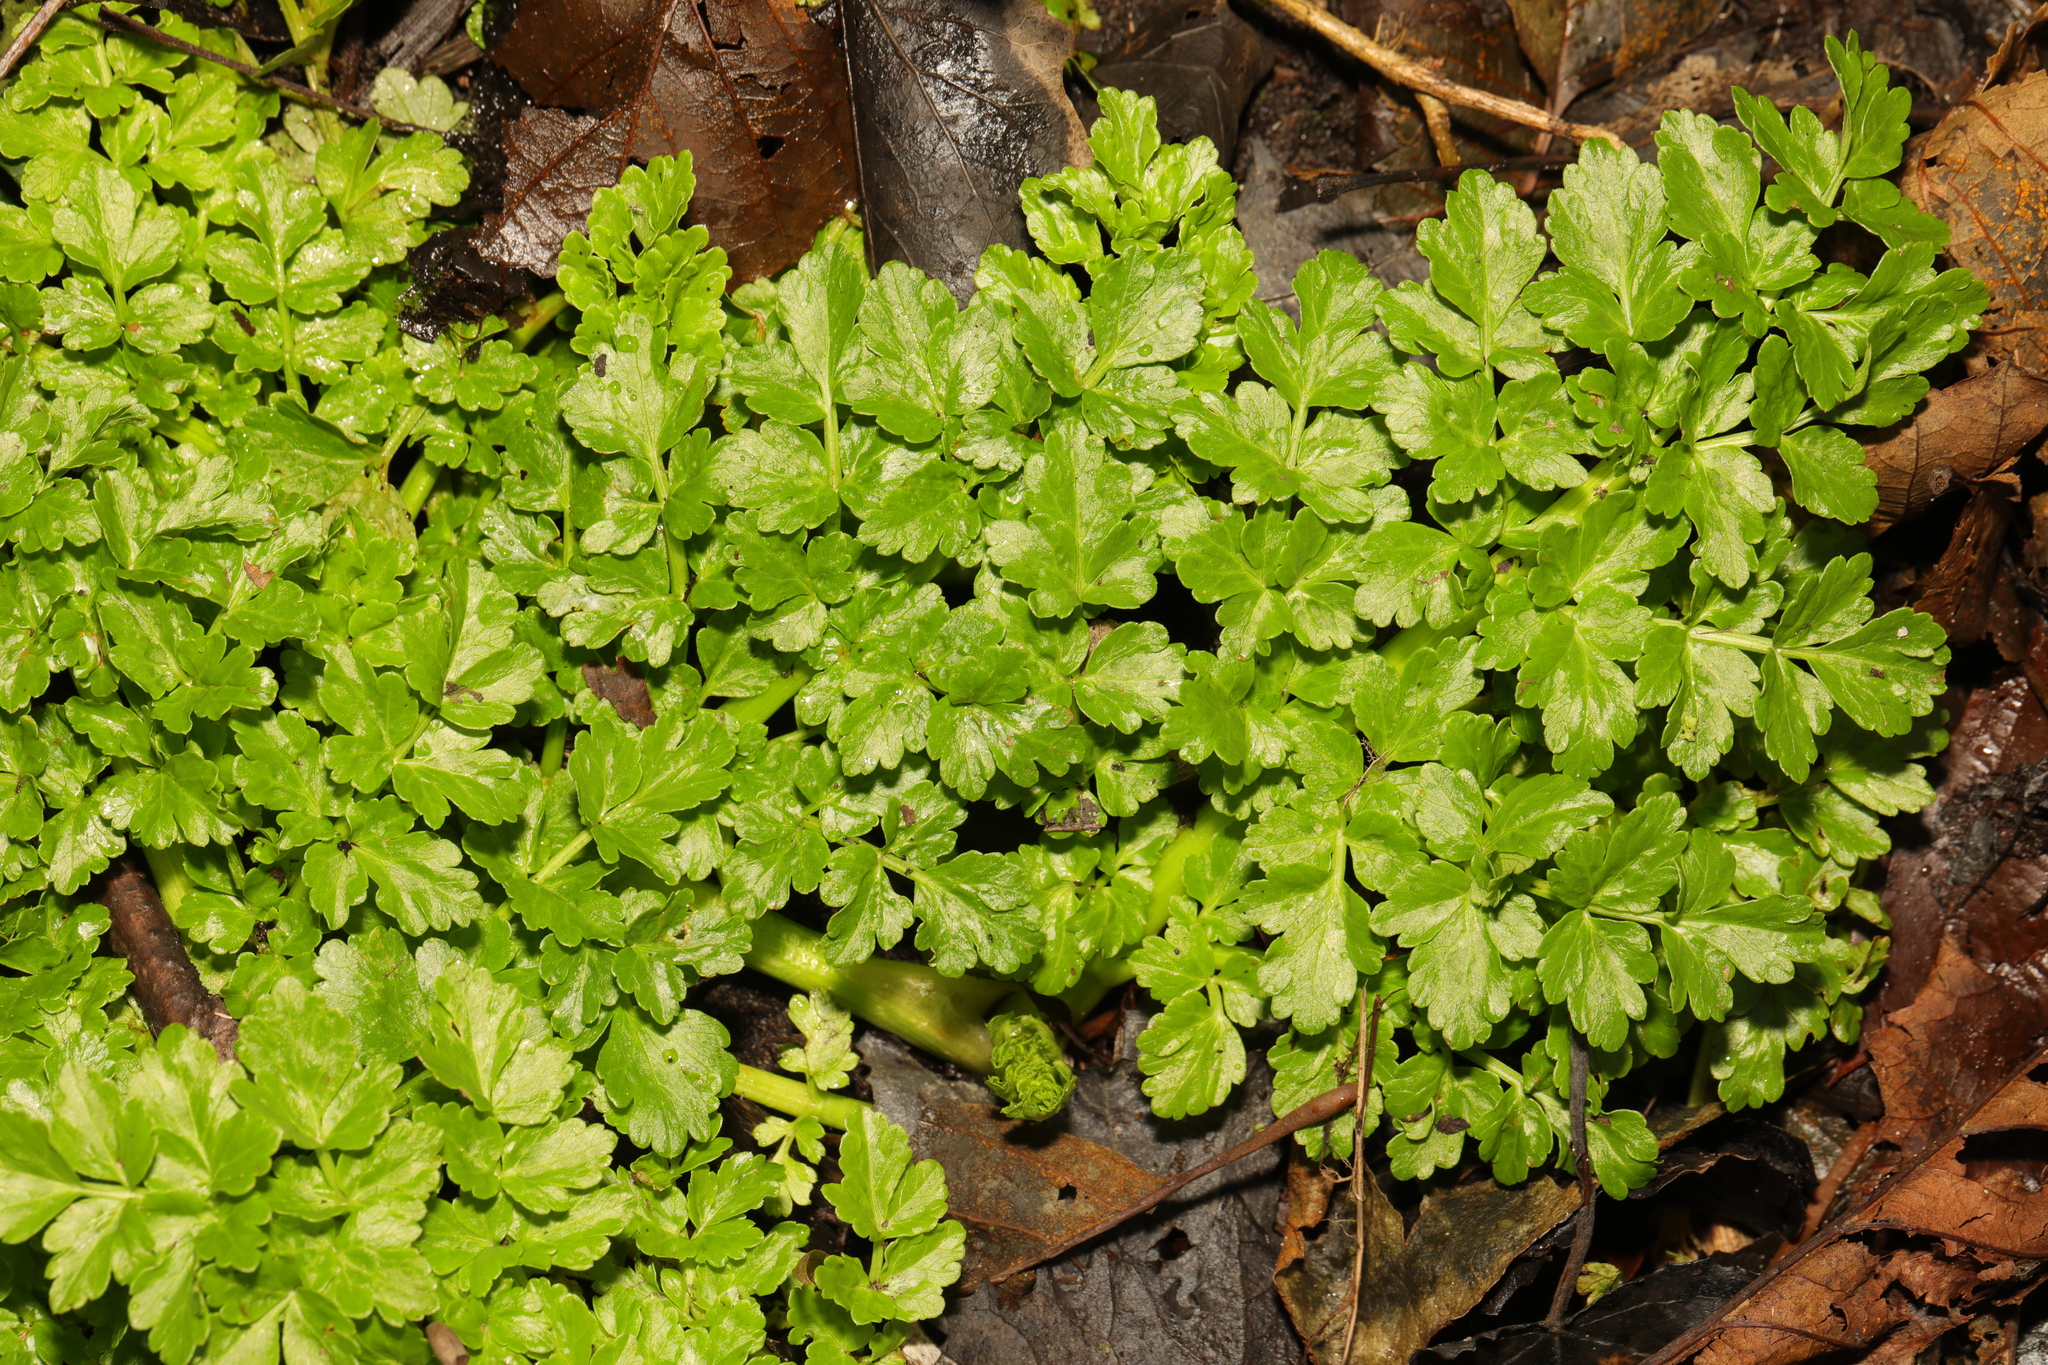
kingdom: Plantae
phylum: Tracheophyta
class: Magnoliopsida
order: Apiales
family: Apiaceae
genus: Oenanthe
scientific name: Oenanthe crocata
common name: Hemlock water-dropwort
